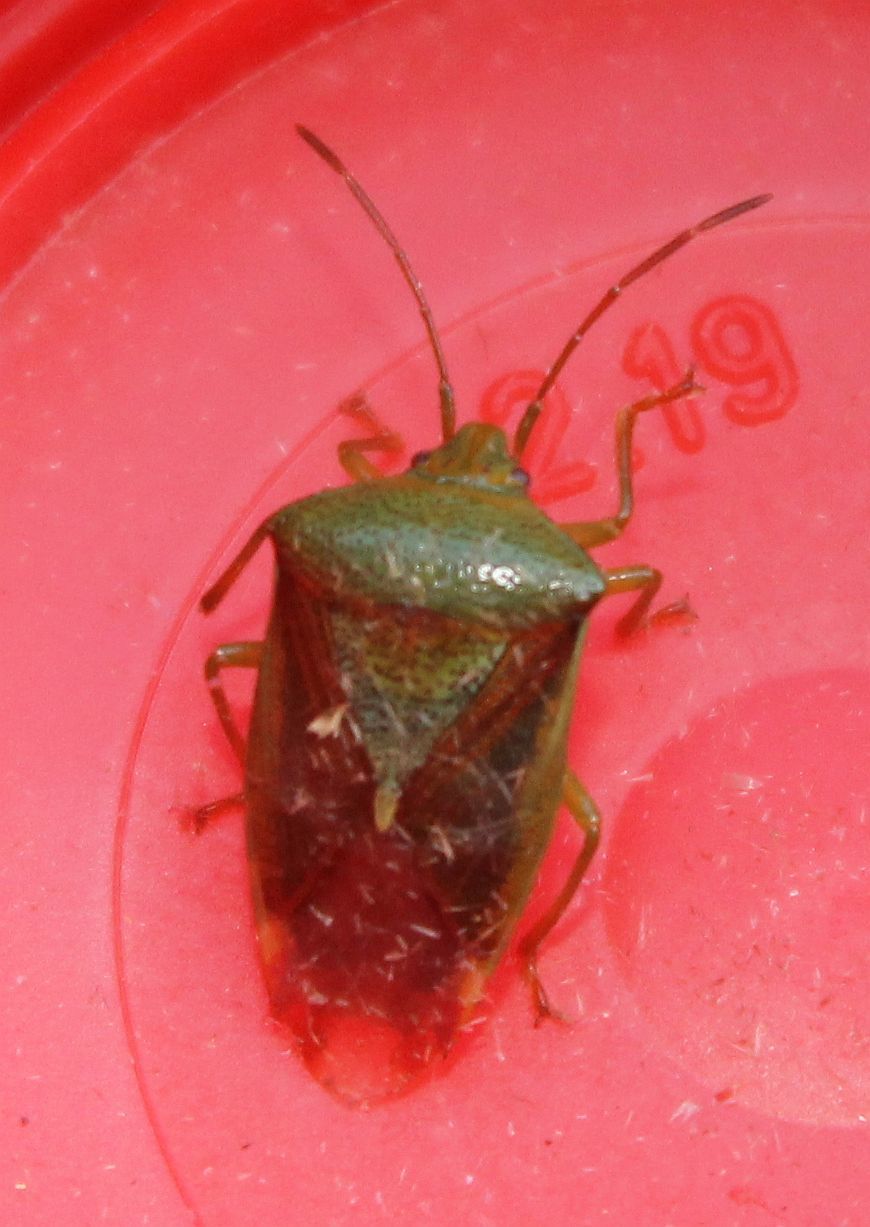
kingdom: Animalia
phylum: Arthropoda
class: Insecta
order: Hemiptera
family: Acanthosomatidae
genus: Elasmostethus
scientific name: Elasmostethus interstinctus
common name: Birch shieldbug
